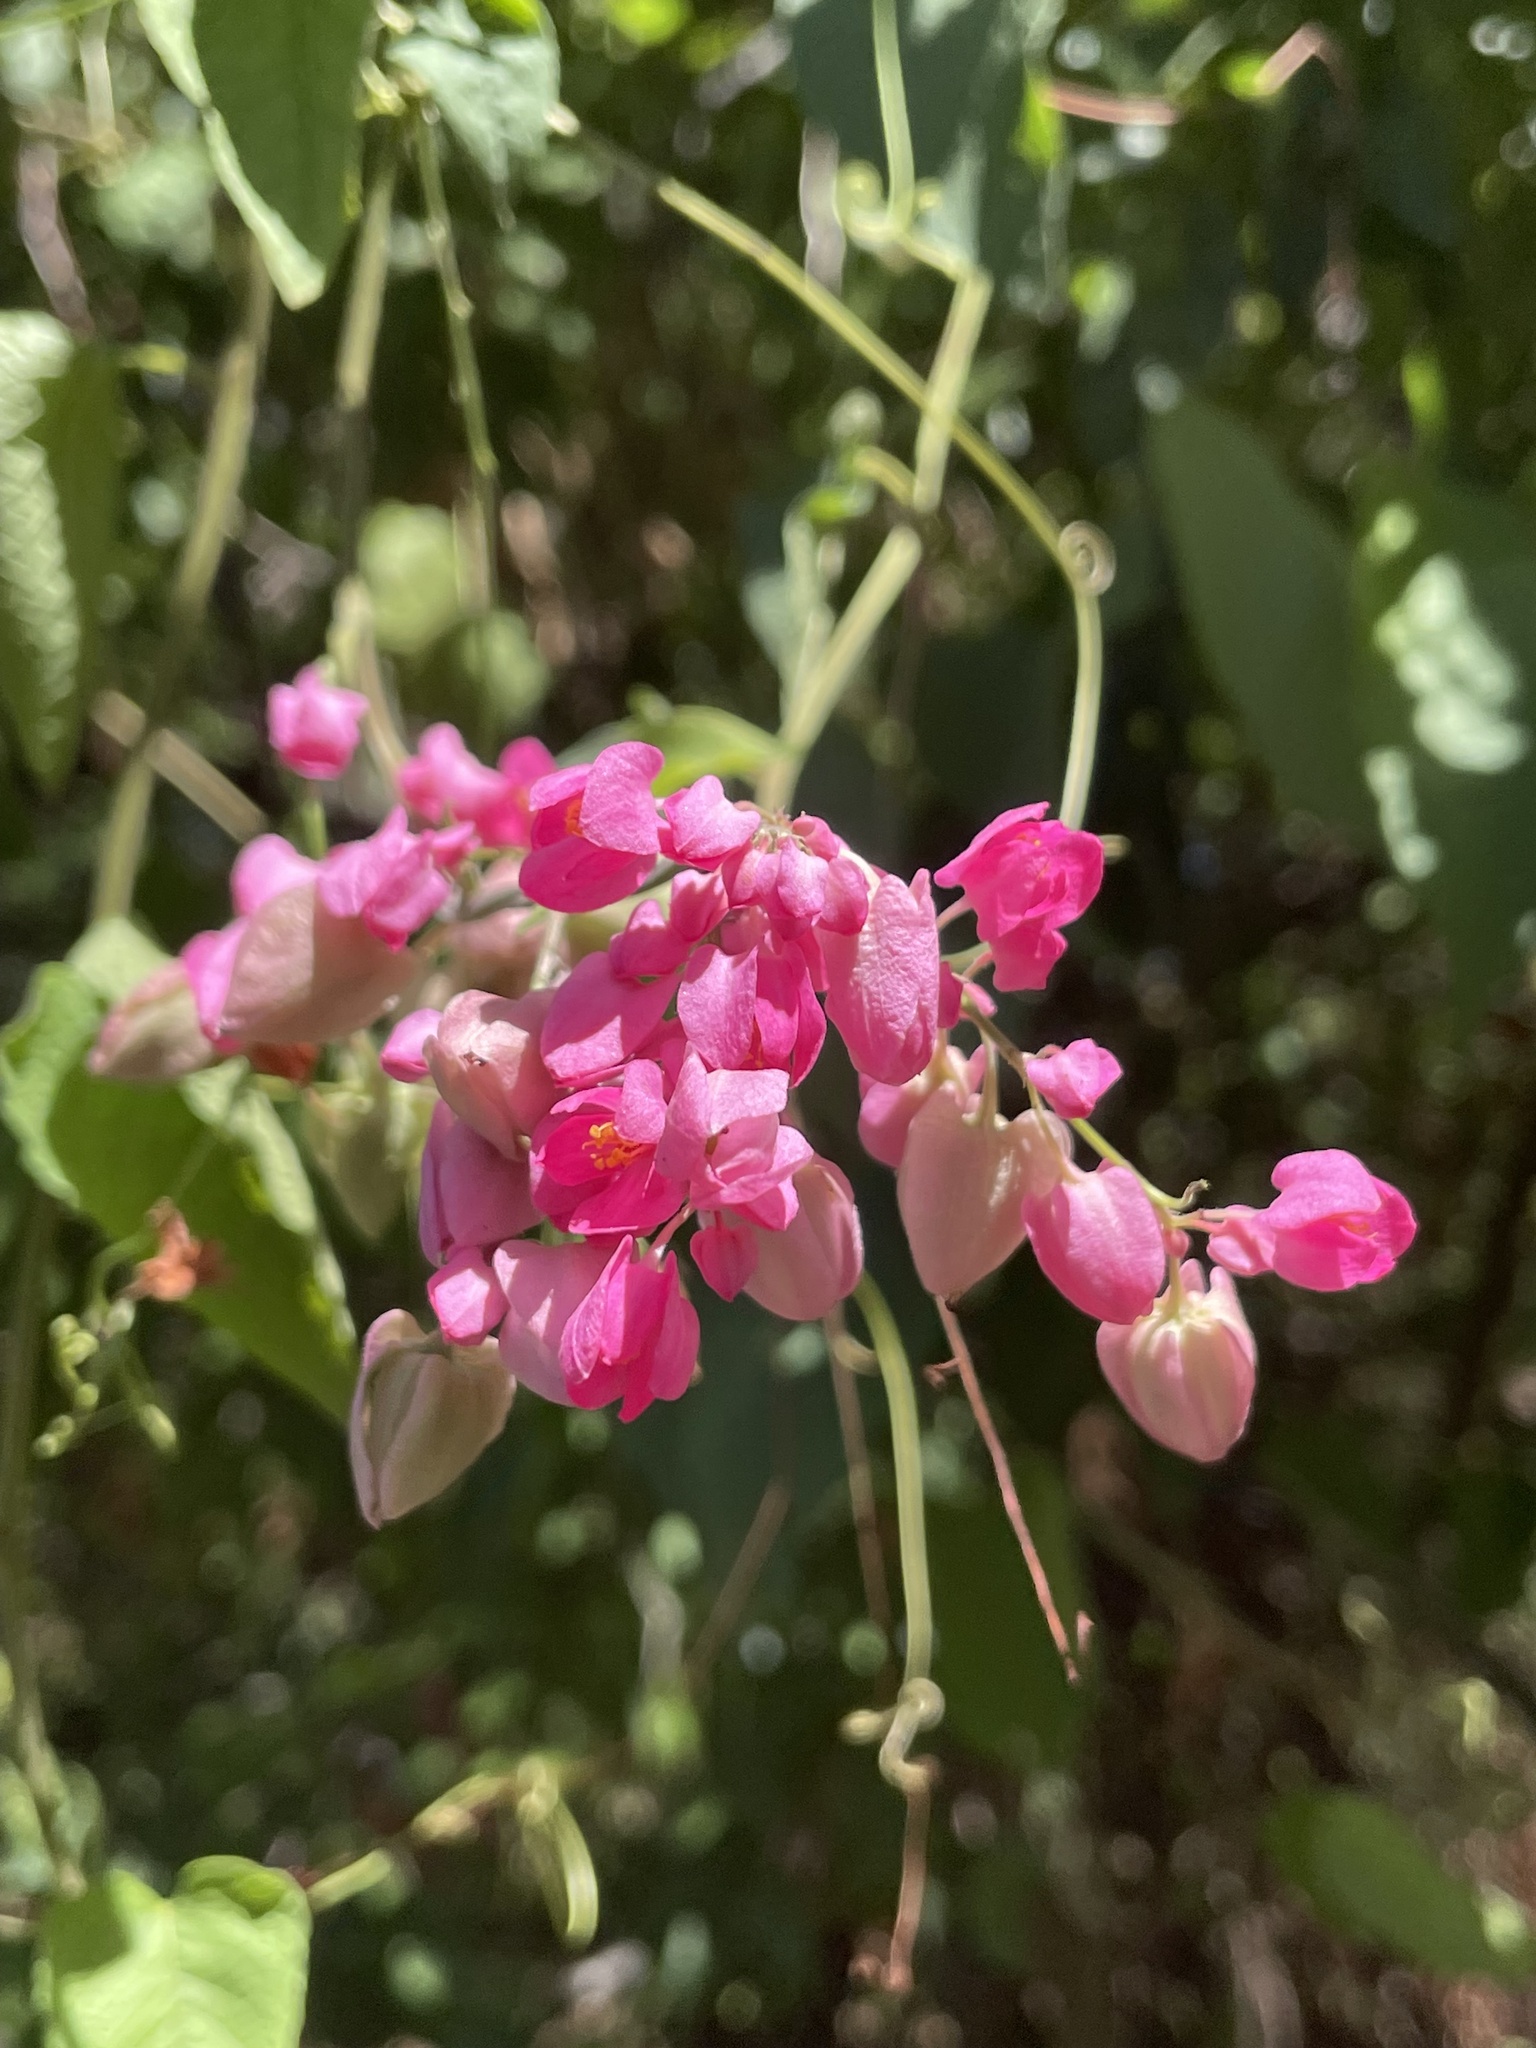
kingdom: Plantae
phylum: Tracheophyta
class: Magnoliopsida
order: Caryophyllales
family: Polygonaceae
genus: Antigonon
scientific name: Antigonon leptopus
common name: Coral vine
